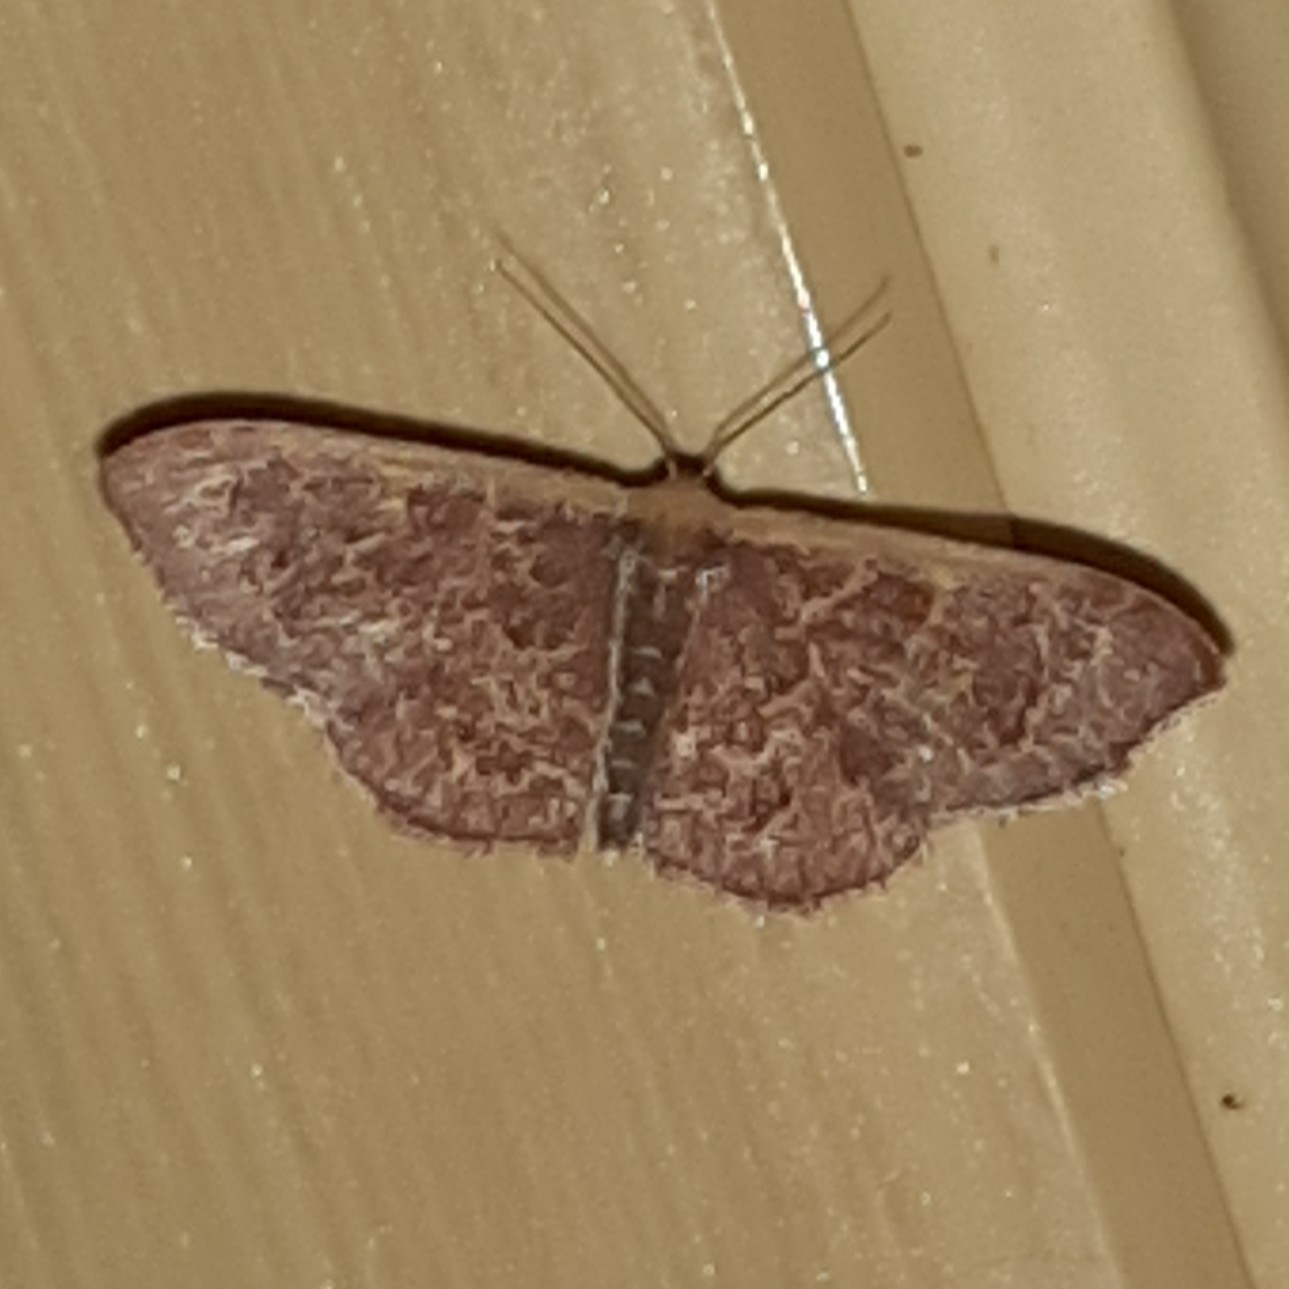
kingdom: Animalia
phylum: Arthropoda
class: Insecta
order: Lepidoptera
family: Geometridae
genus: Leptostales
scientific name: Leptostales crossii
